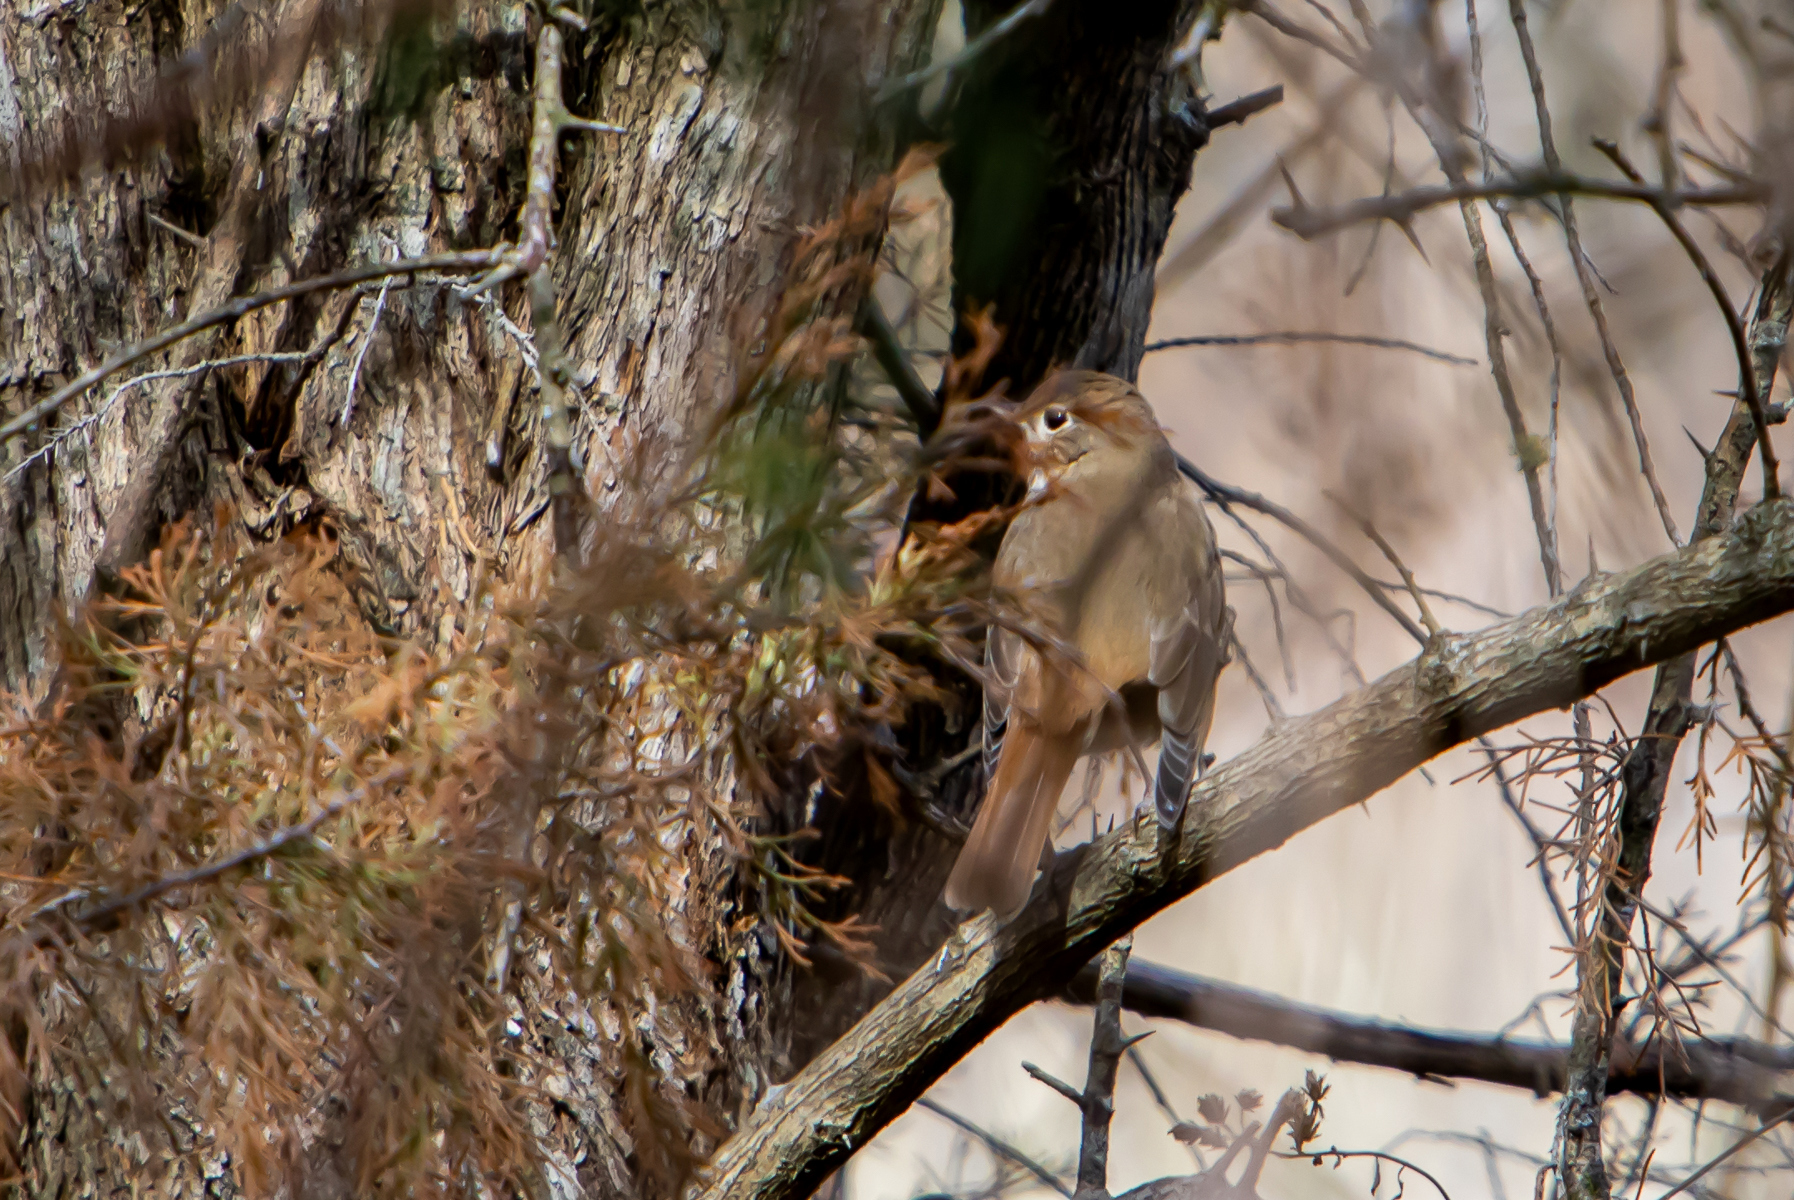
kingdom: Animalia
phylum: Chordata
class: Aves
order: Passeriformes
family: Turdidae
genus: Catharus
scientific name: Catharus guttatus
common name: Hermit thrush
